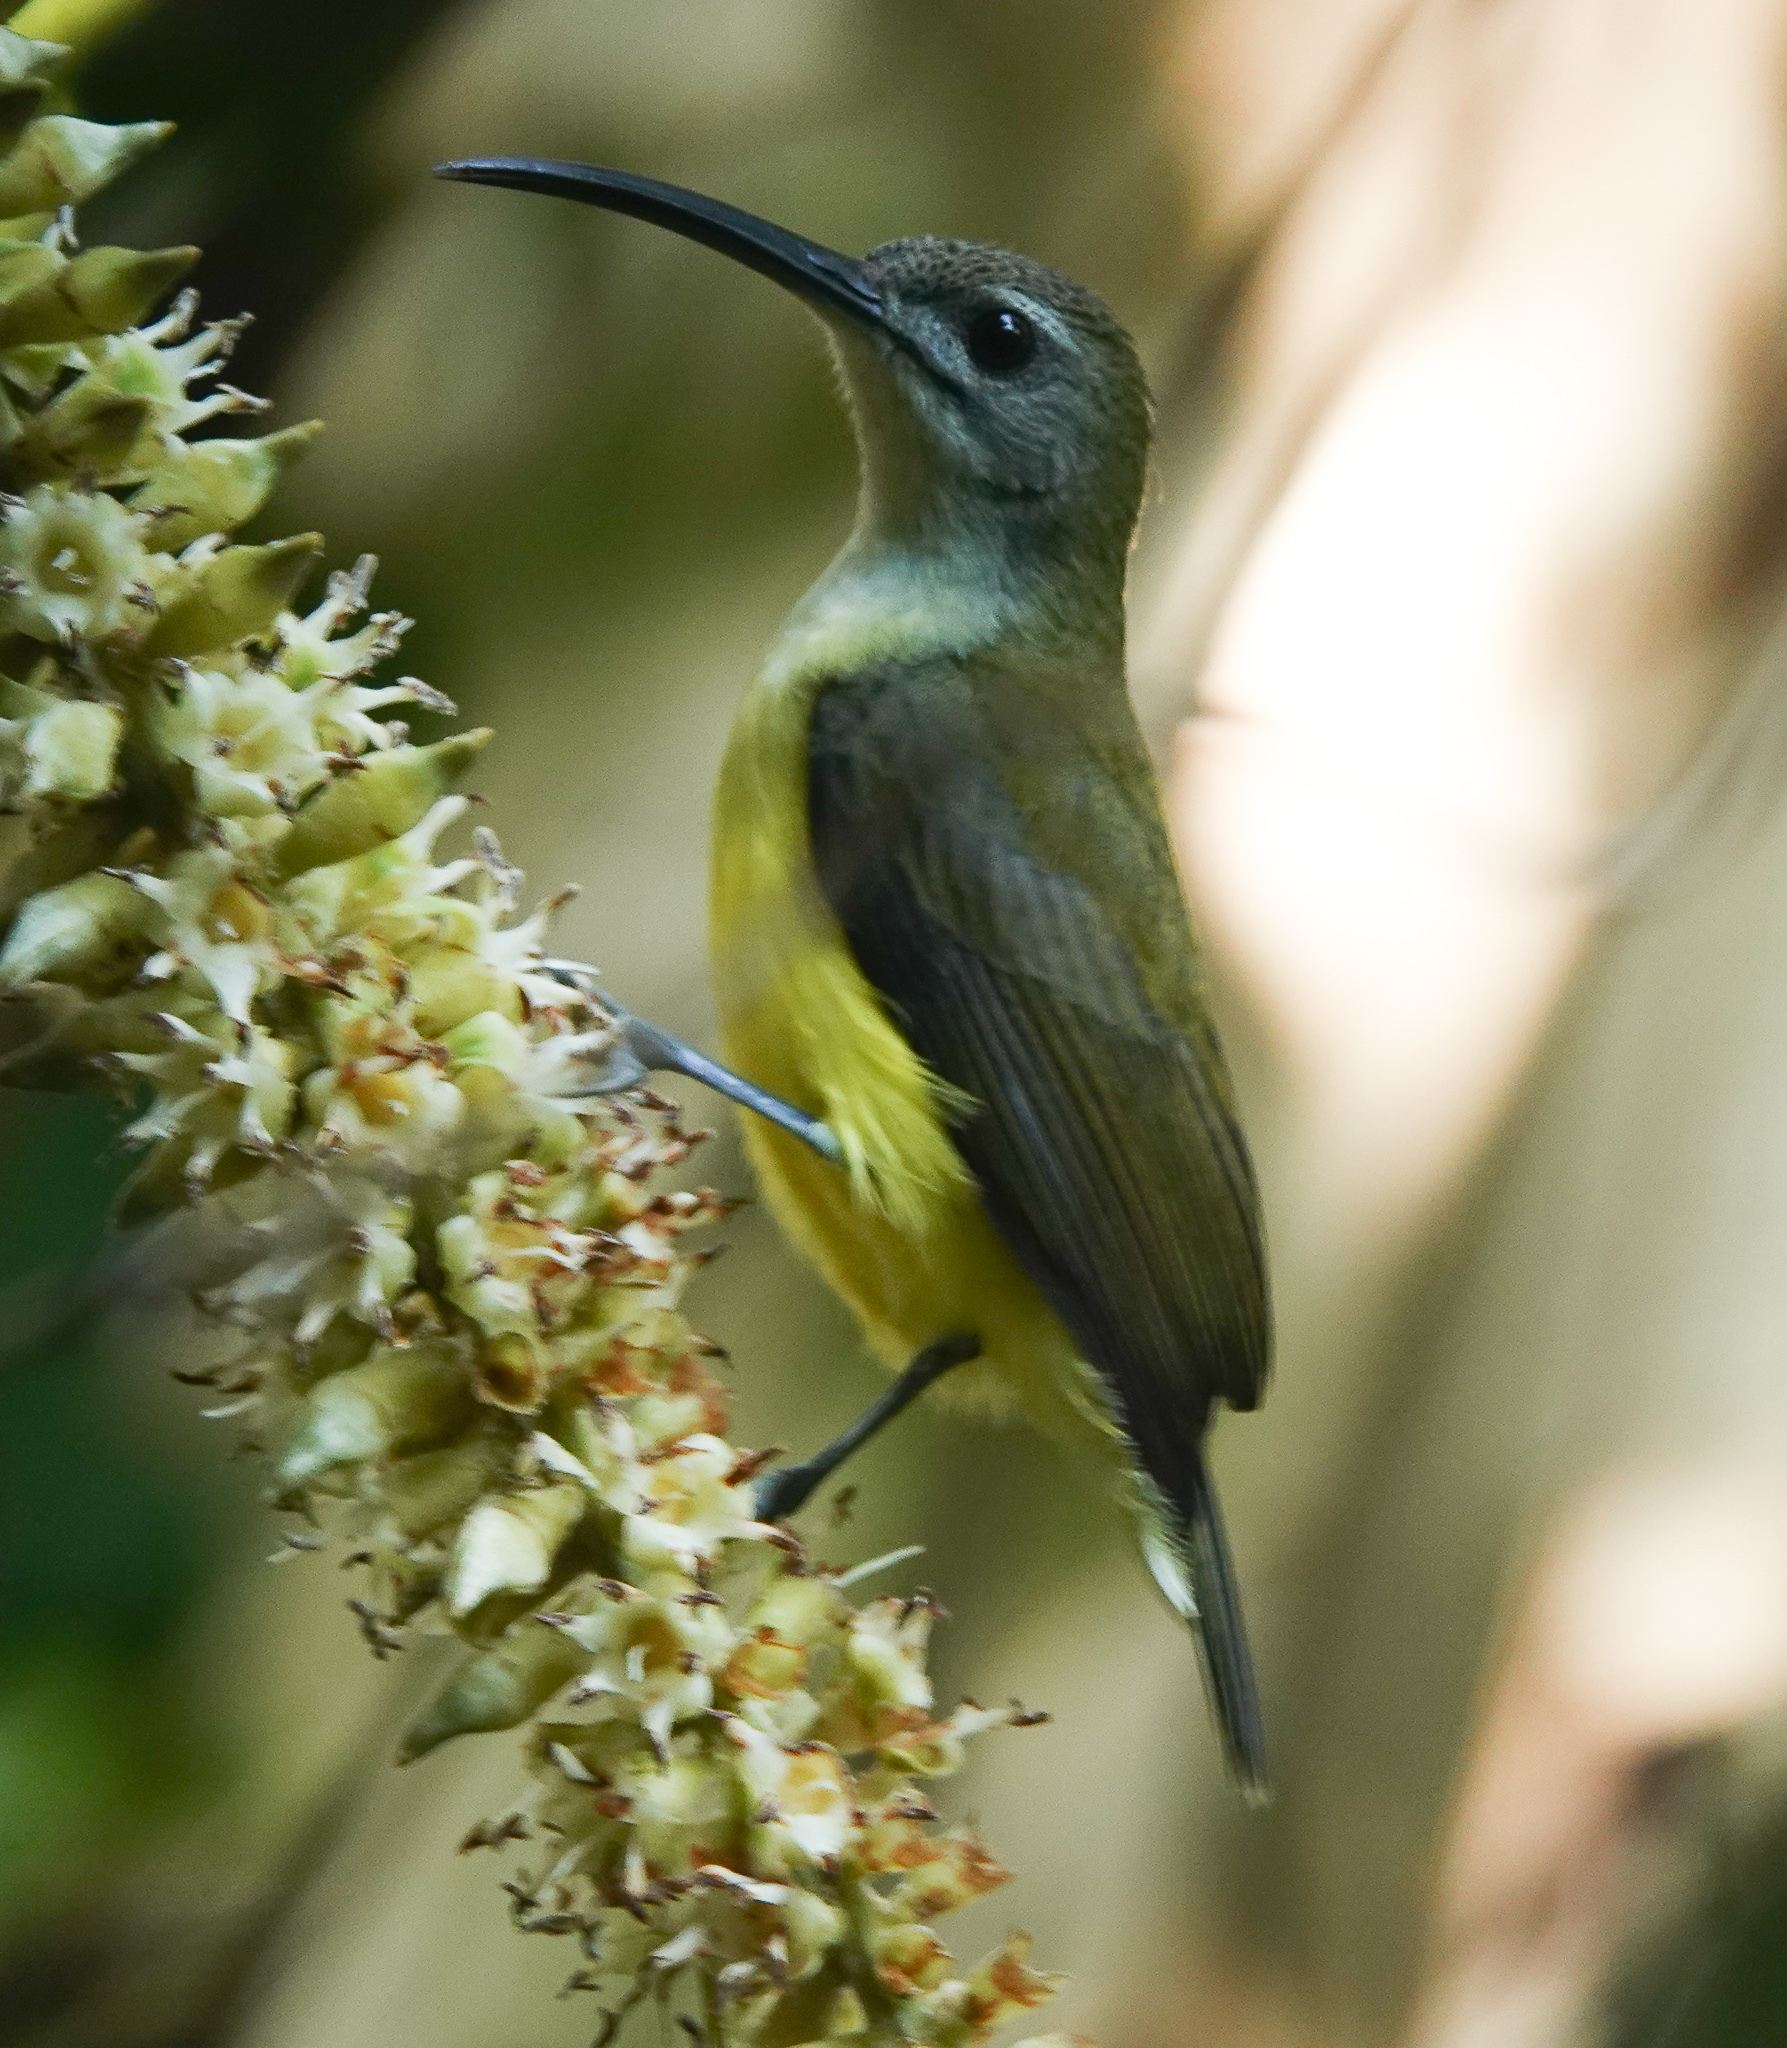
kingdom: Animalia
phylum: Chordata
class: Aves
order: Passeriformes
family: Nectariniidae
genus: Arachnothera
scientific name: Arachnothera longirostra
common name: Little spiderhunter
